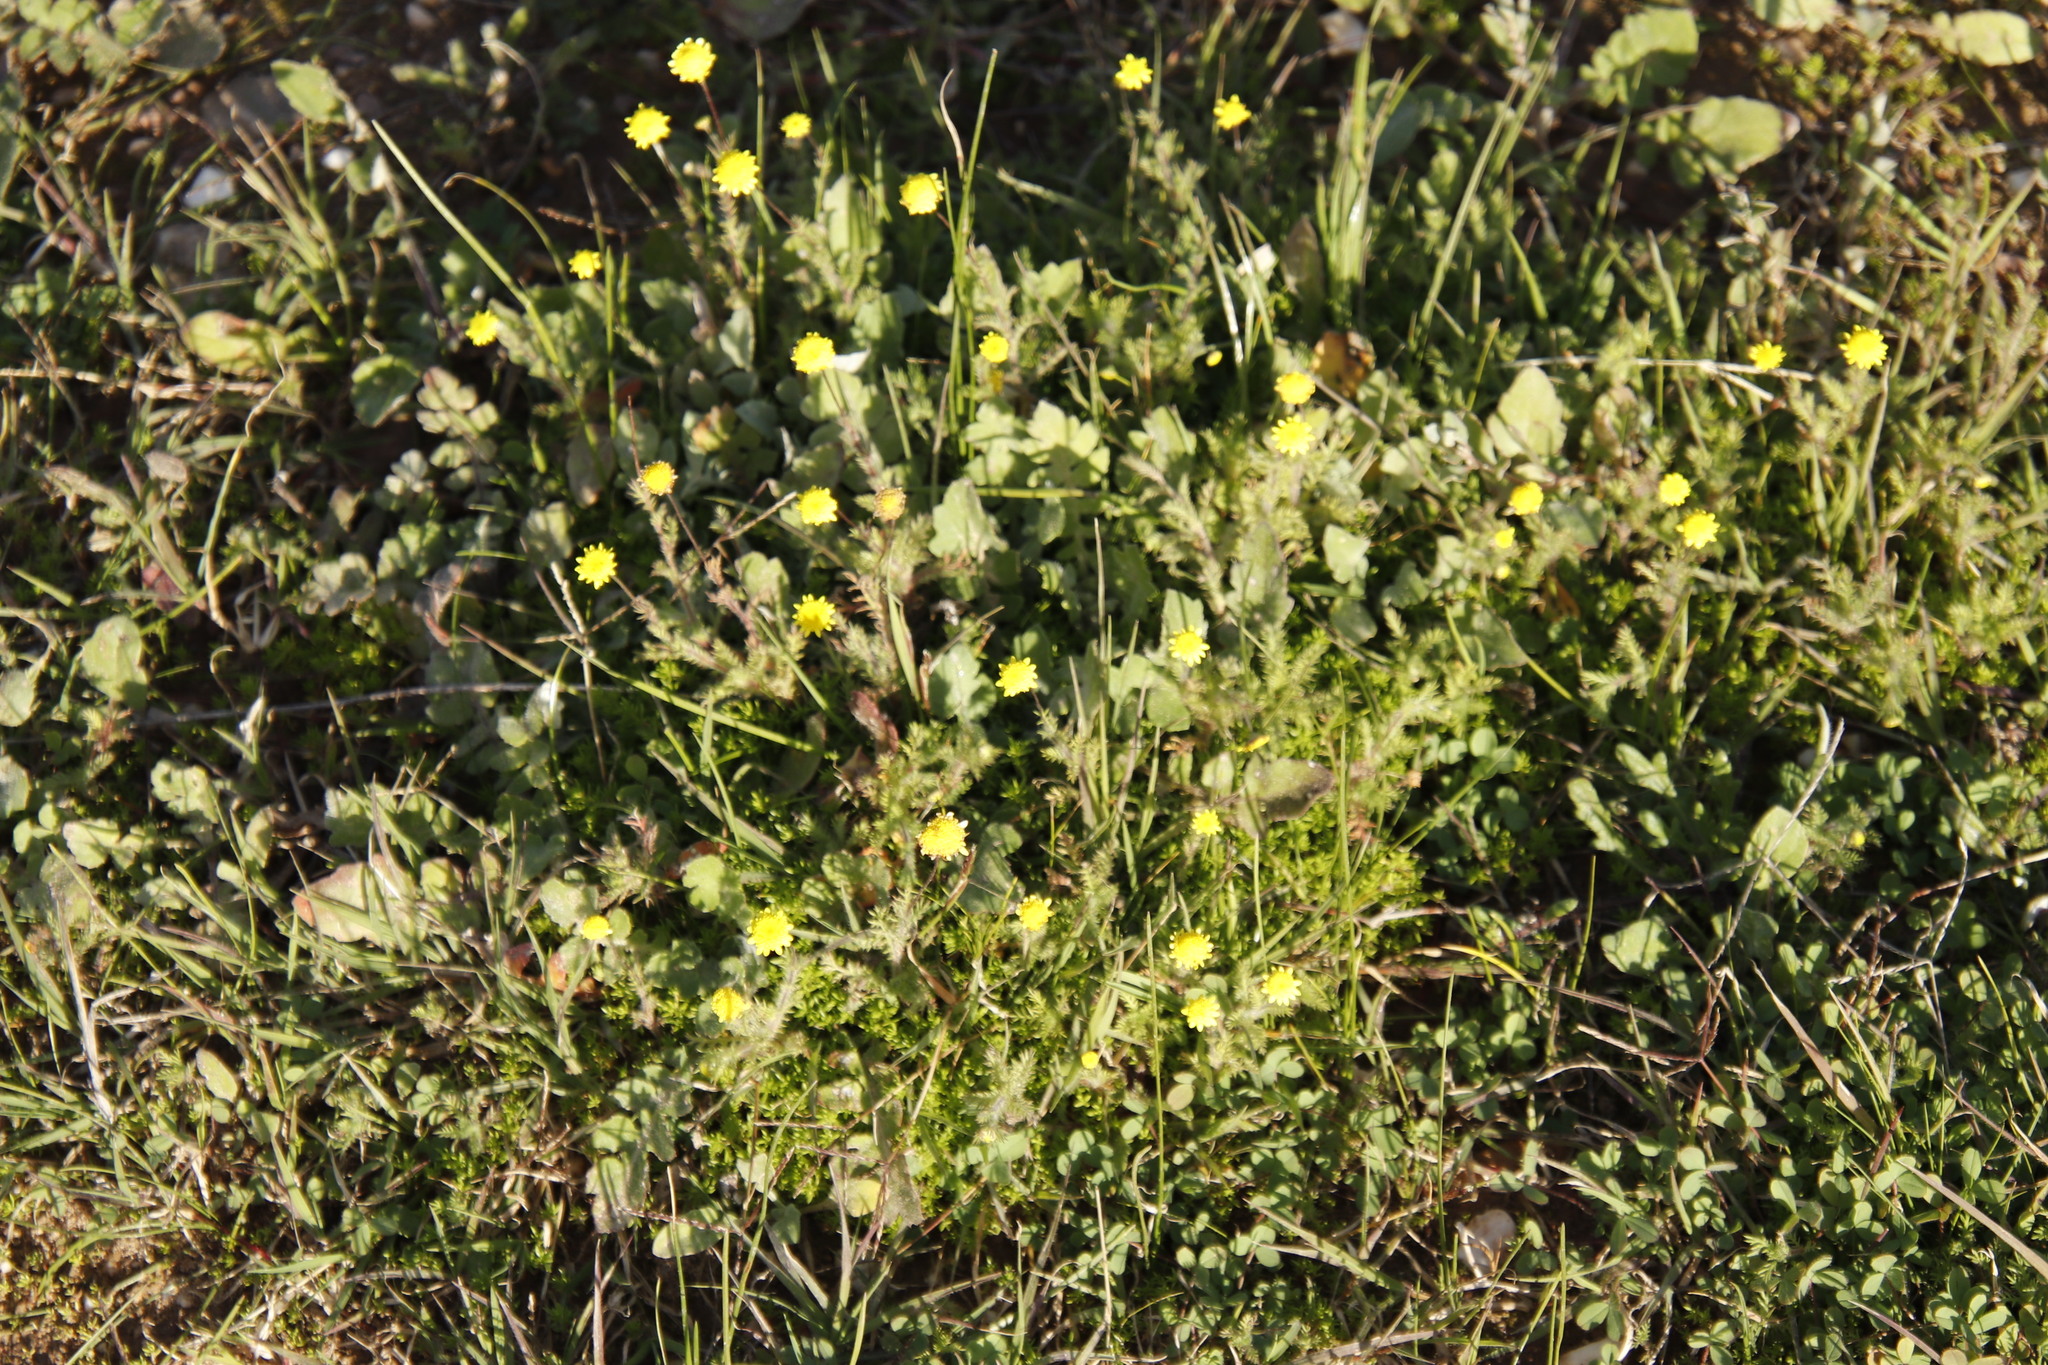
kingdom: Plantae
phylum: Tracheophyta
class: Magnoliopsida
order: Asterales
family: Asteraceae
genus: Cotula
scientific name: Cotula pruinosa
